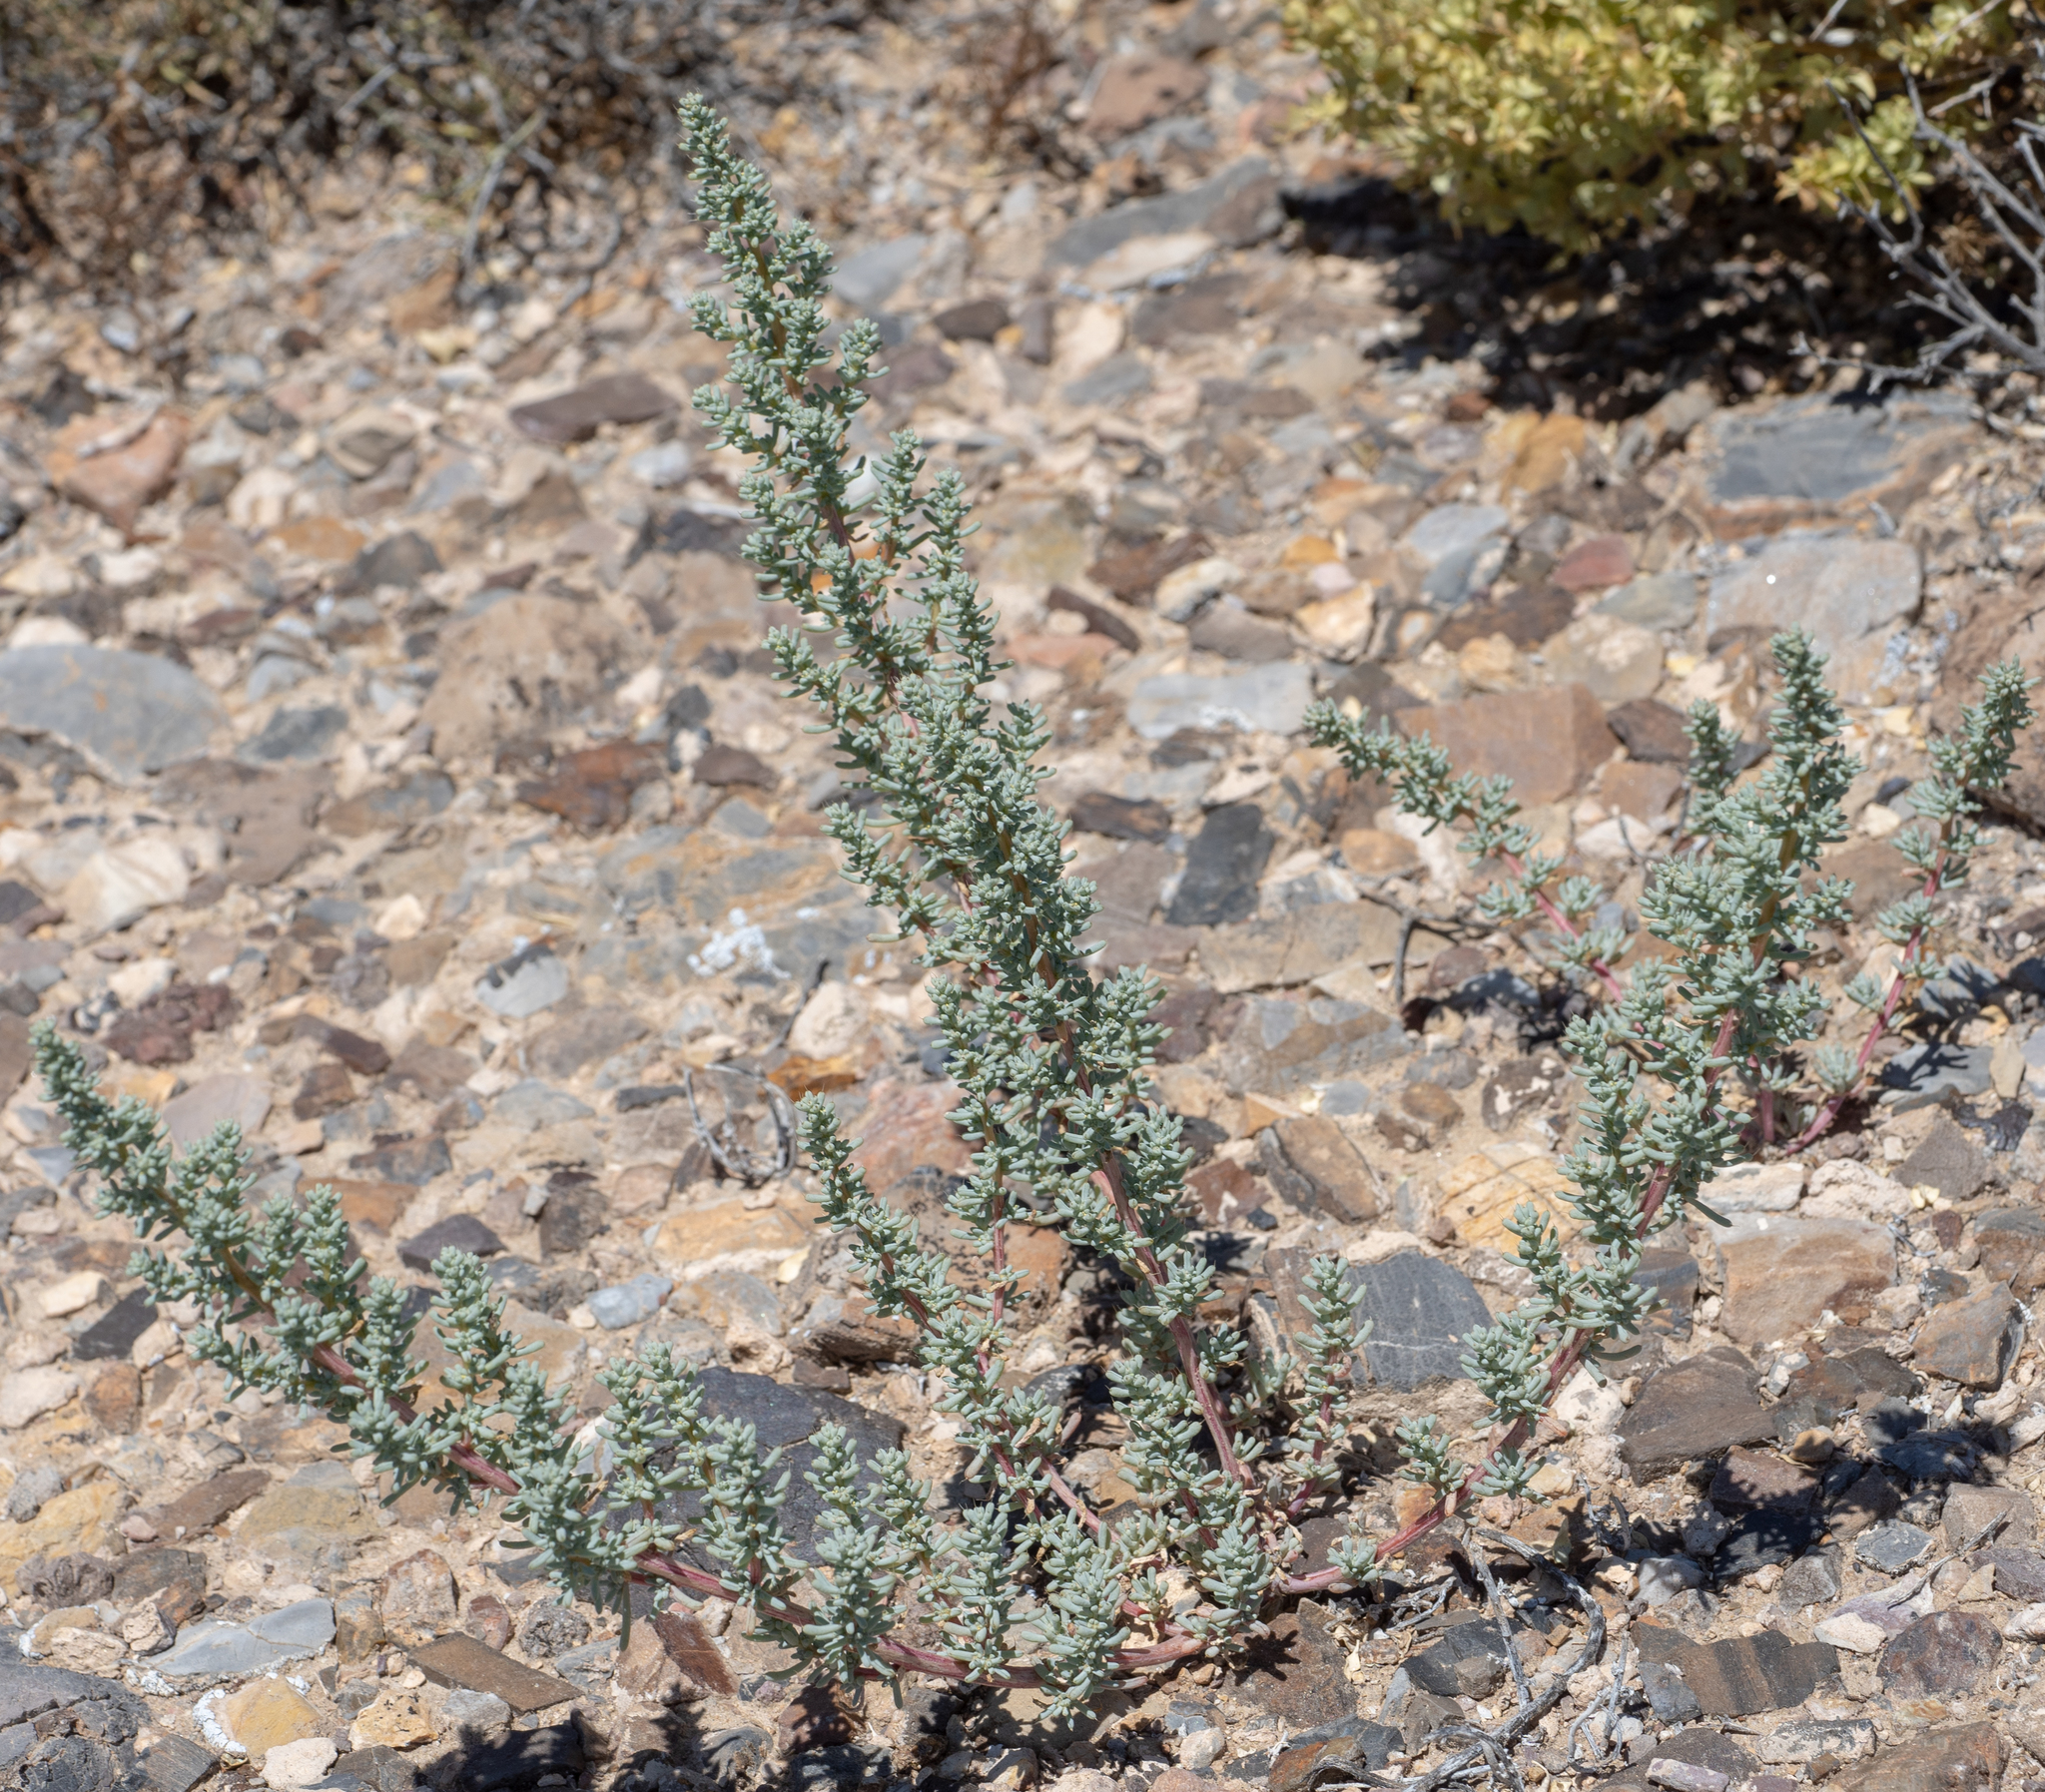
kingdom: Plantae
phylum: Tracheophyta
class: Magnoliopsida
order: Caryophyllales
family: Amaranthaceae
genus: Halogeton
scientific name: Halogeton glomeratus
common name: Saltlover
